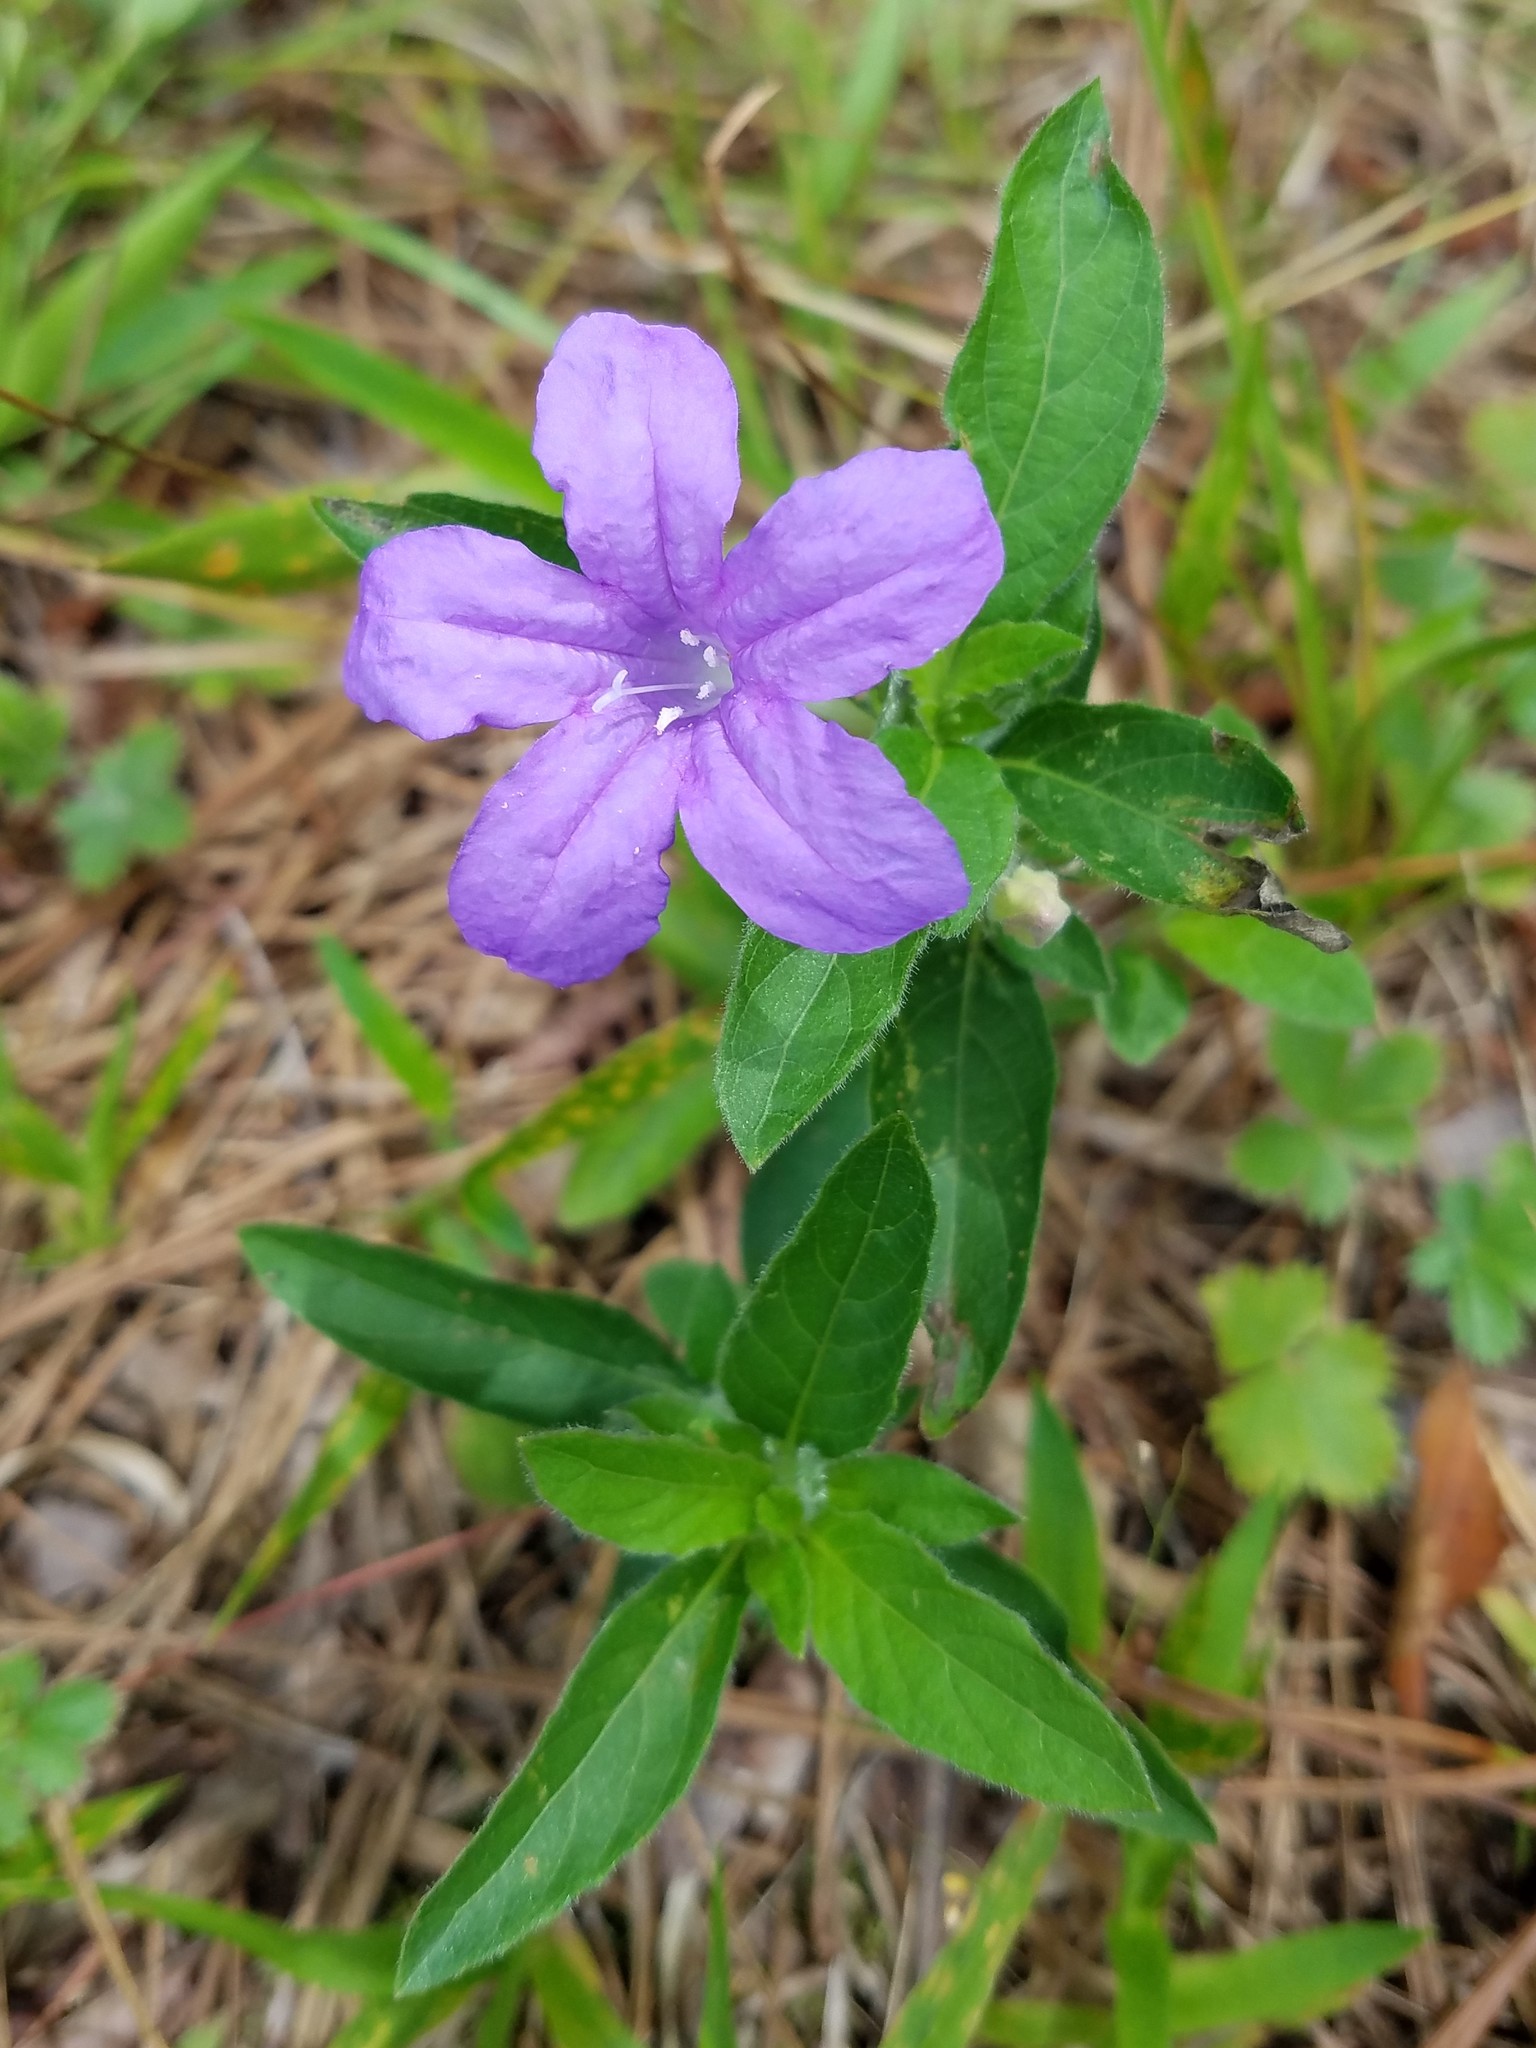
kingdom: Plantae
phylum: Tracheophyta
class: Magnoliopsida
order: Lamiales
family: Acanthaceae
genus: Ruellia
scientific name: Ruellia caroliniensis
